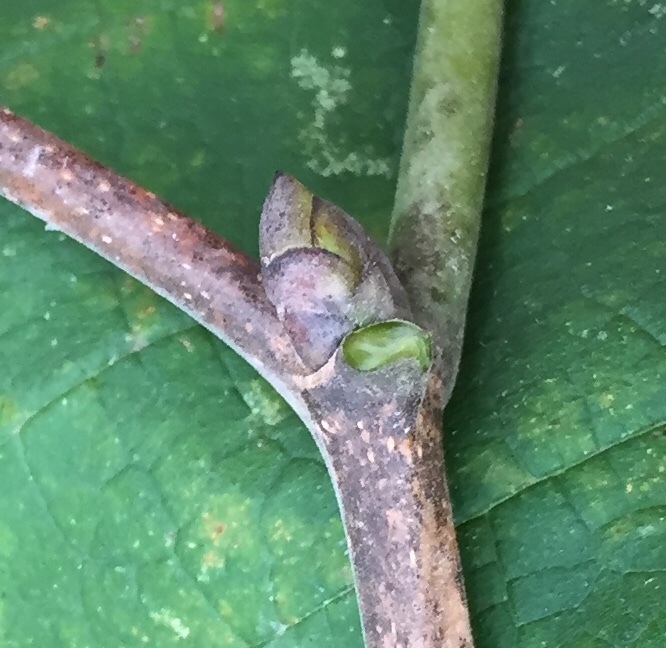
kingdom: Plantae
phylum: Tracheophyta
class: Magnoliopsida
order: Malvales
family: Malvaceae
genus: Tilia
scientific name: Tilia americana
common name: Basswood
